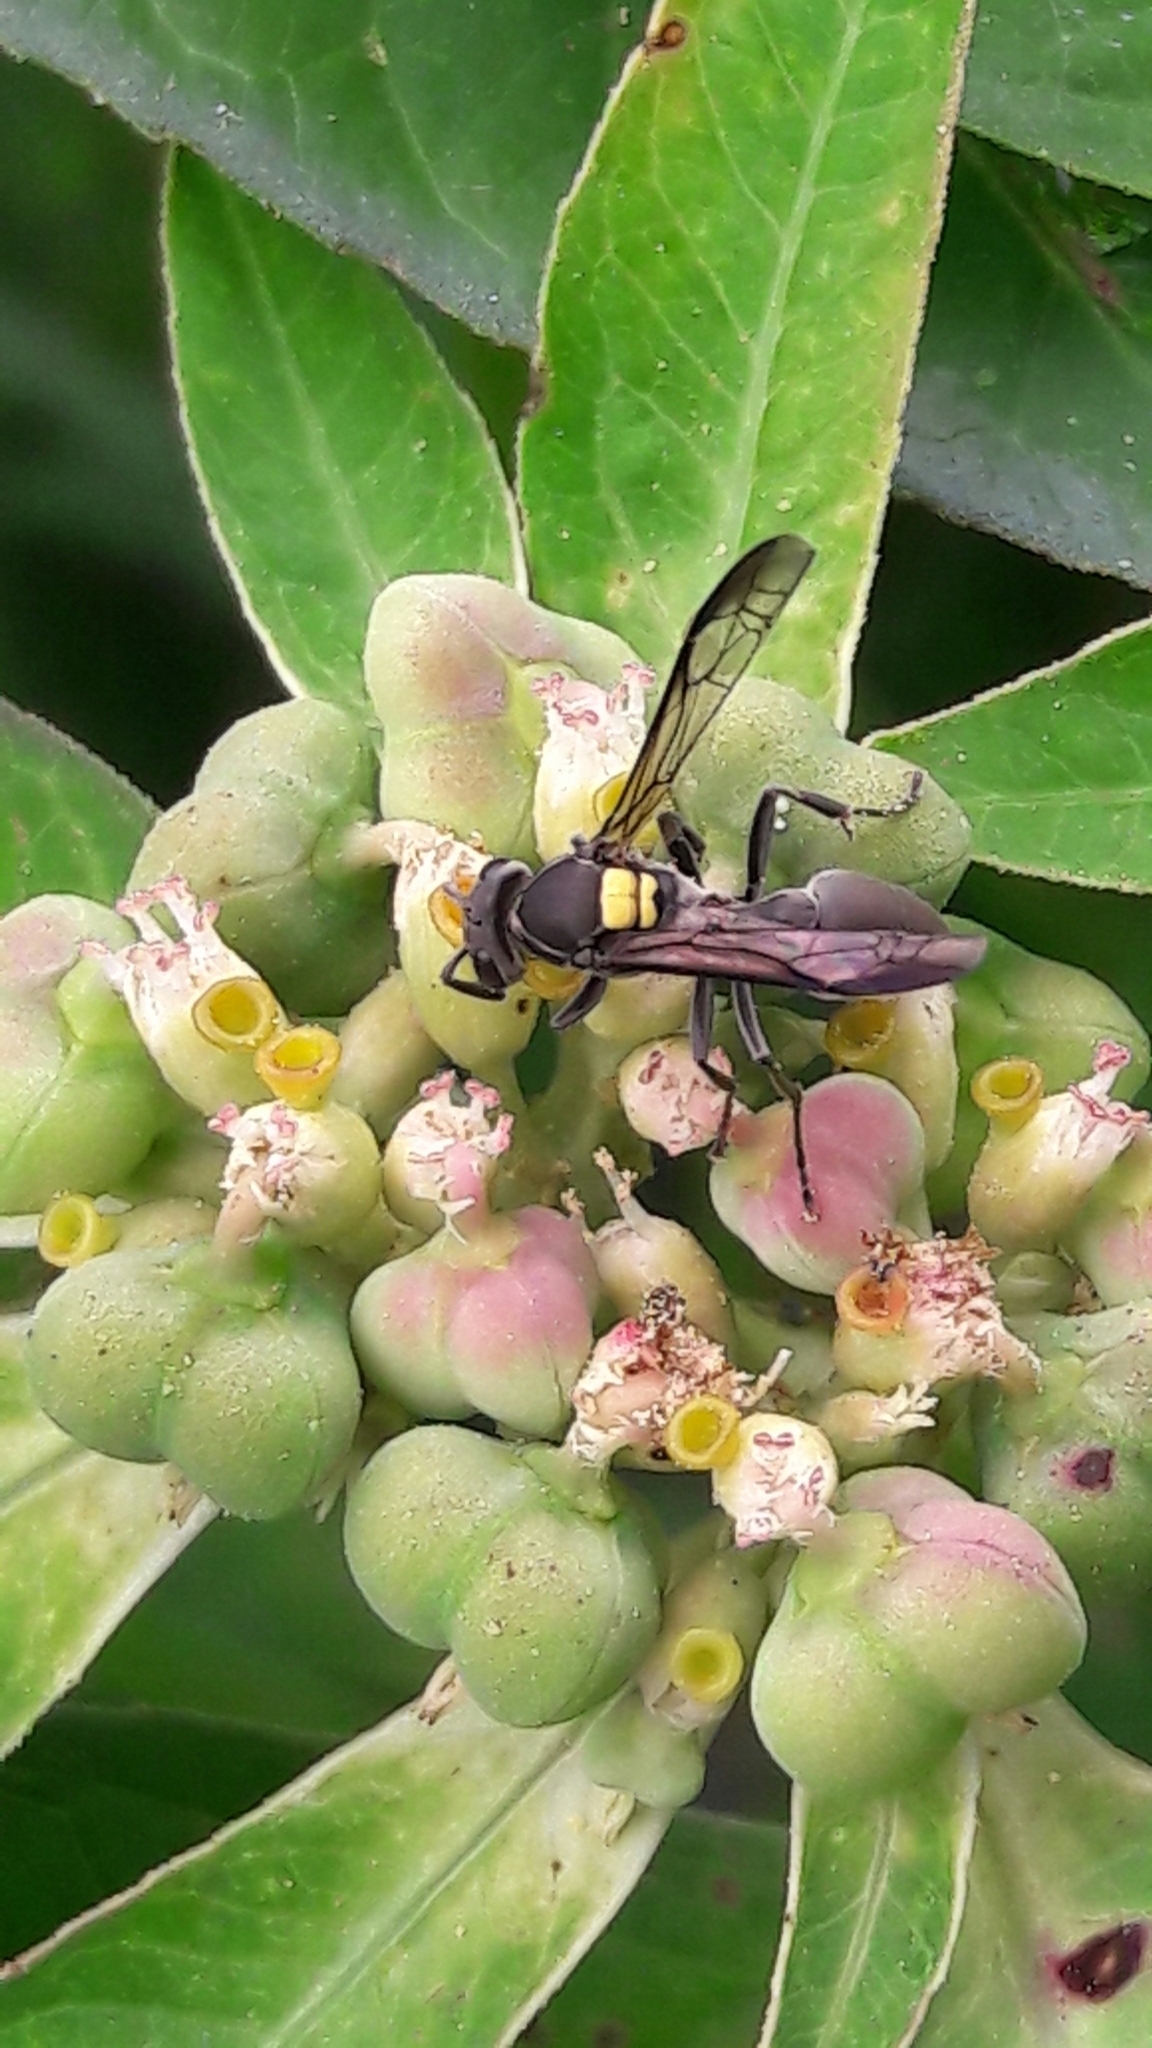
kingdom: Animalia
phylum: Arthropoda
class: Insecta
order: Hymenoptera
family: Eumenidae
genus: Polybia
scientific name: Polybia jurinei
